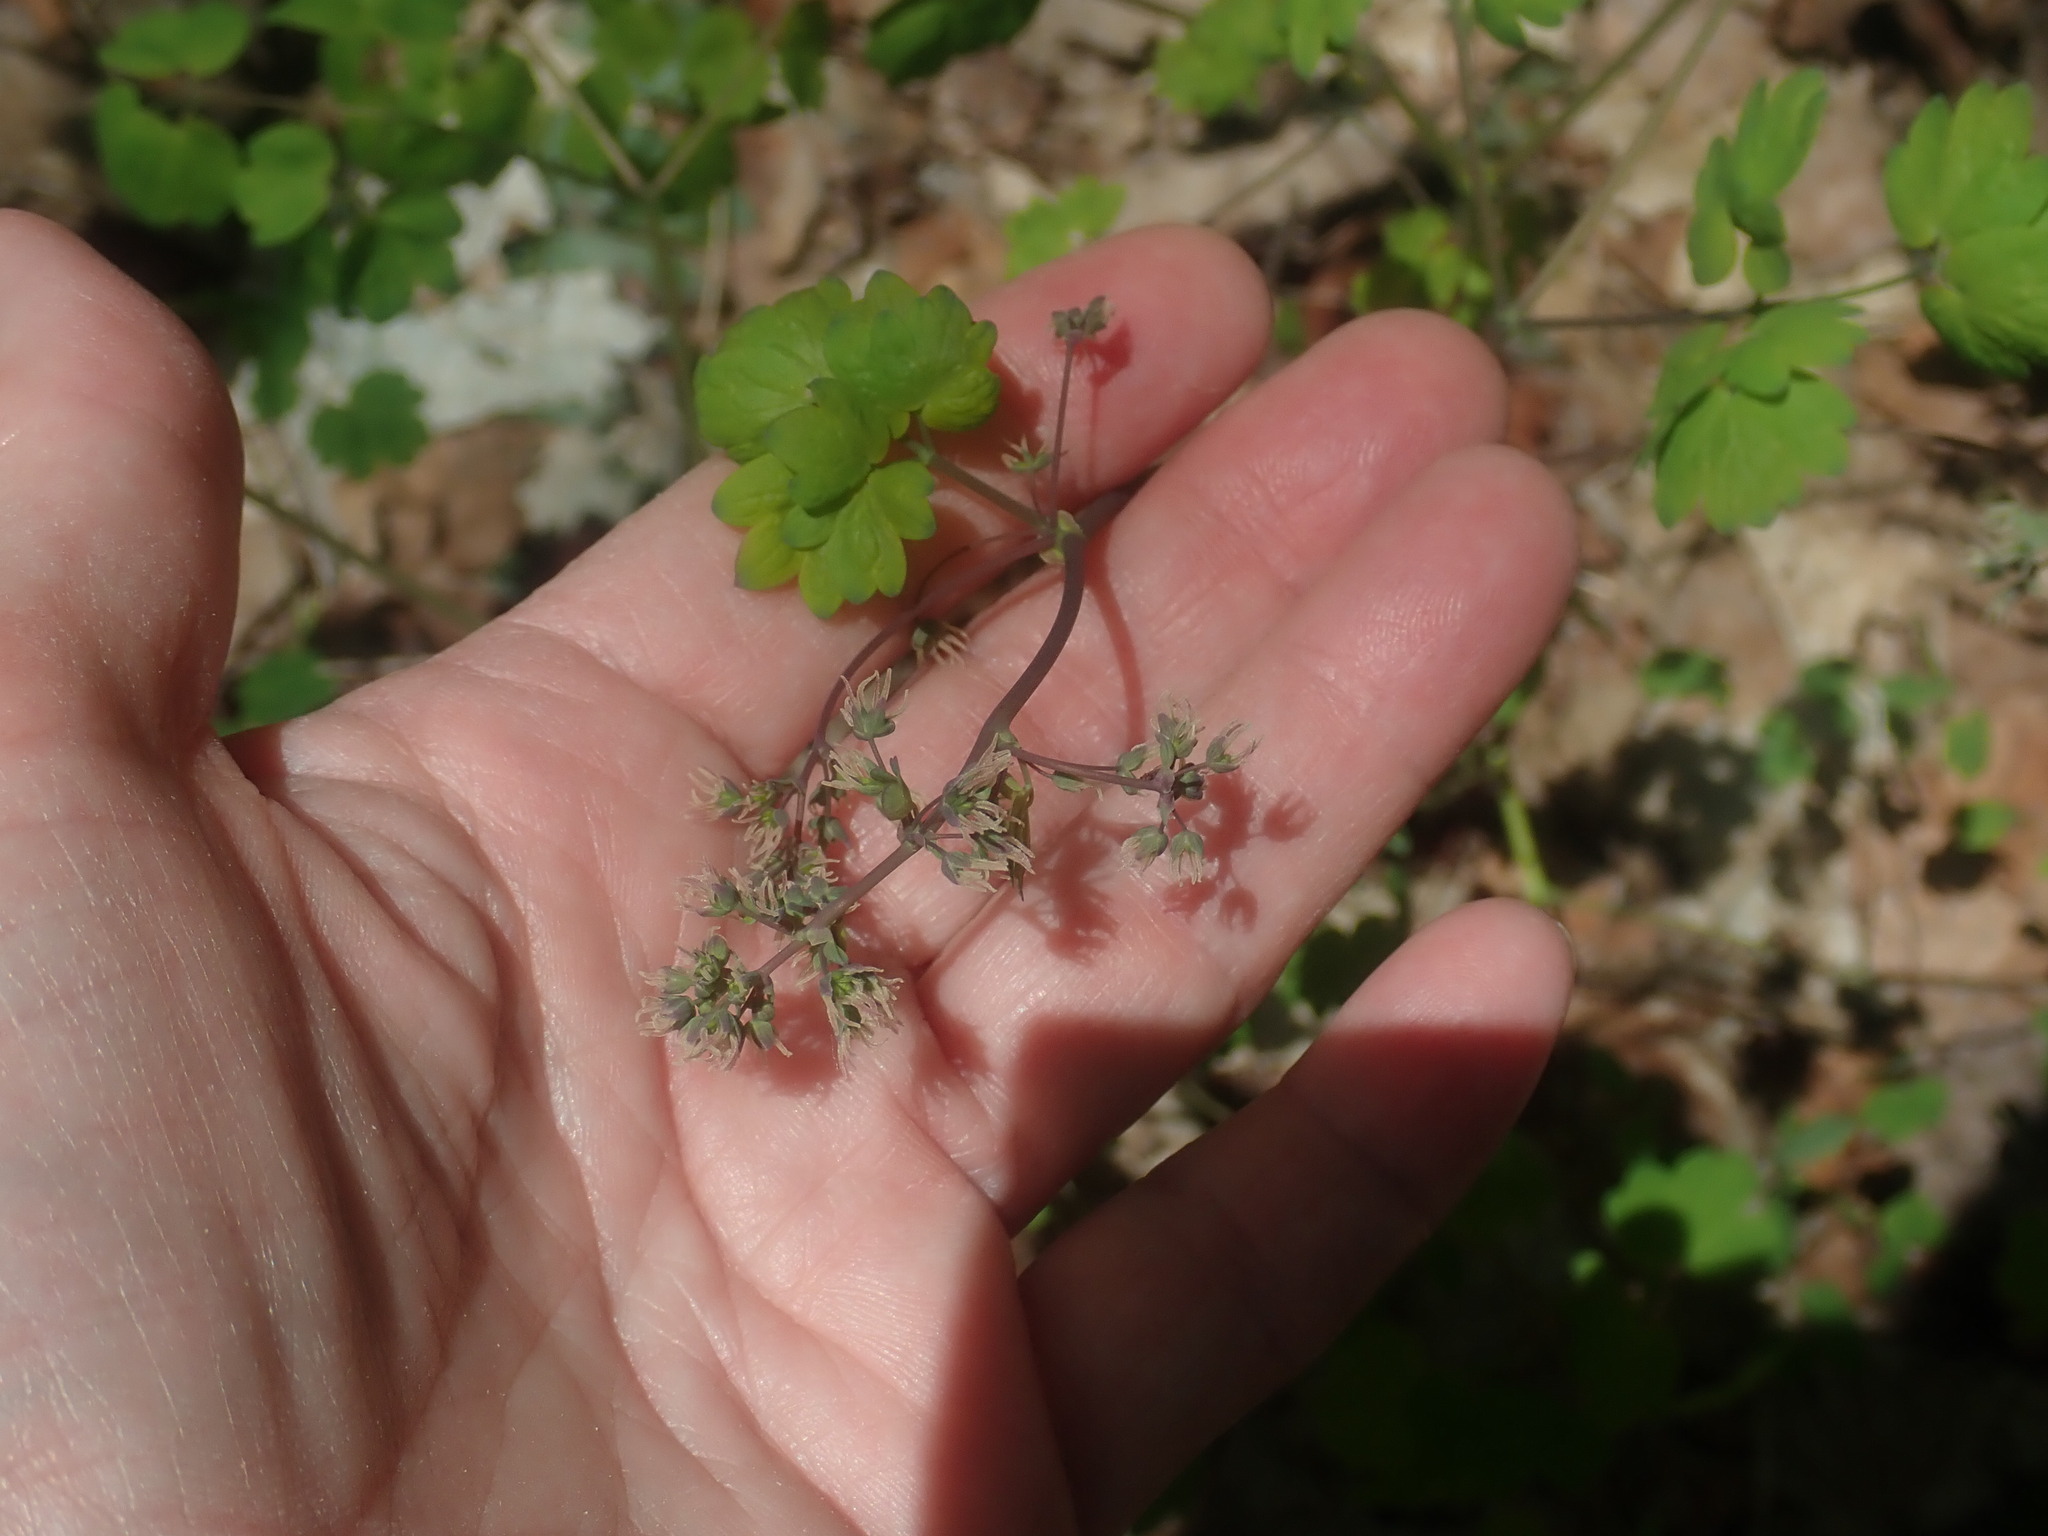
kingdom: Plantae
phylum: Tracheophyta
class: Magnoliopsida
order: Ranunculales
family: Ranunculaceae
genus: Thalictrum
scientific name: Thalictrum dioicum
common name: Early meadow-rue
